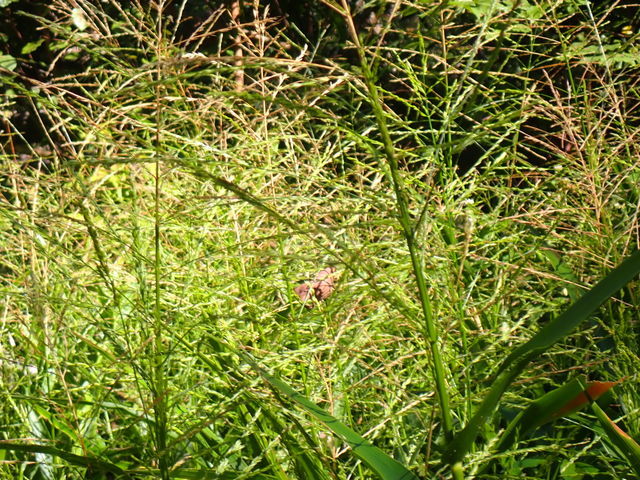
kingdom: Plantae
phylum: Tracheophyta
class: Liliopsida
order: Poales
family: Poaceae
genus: Panicum
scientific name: Panicum gymnocarpon
